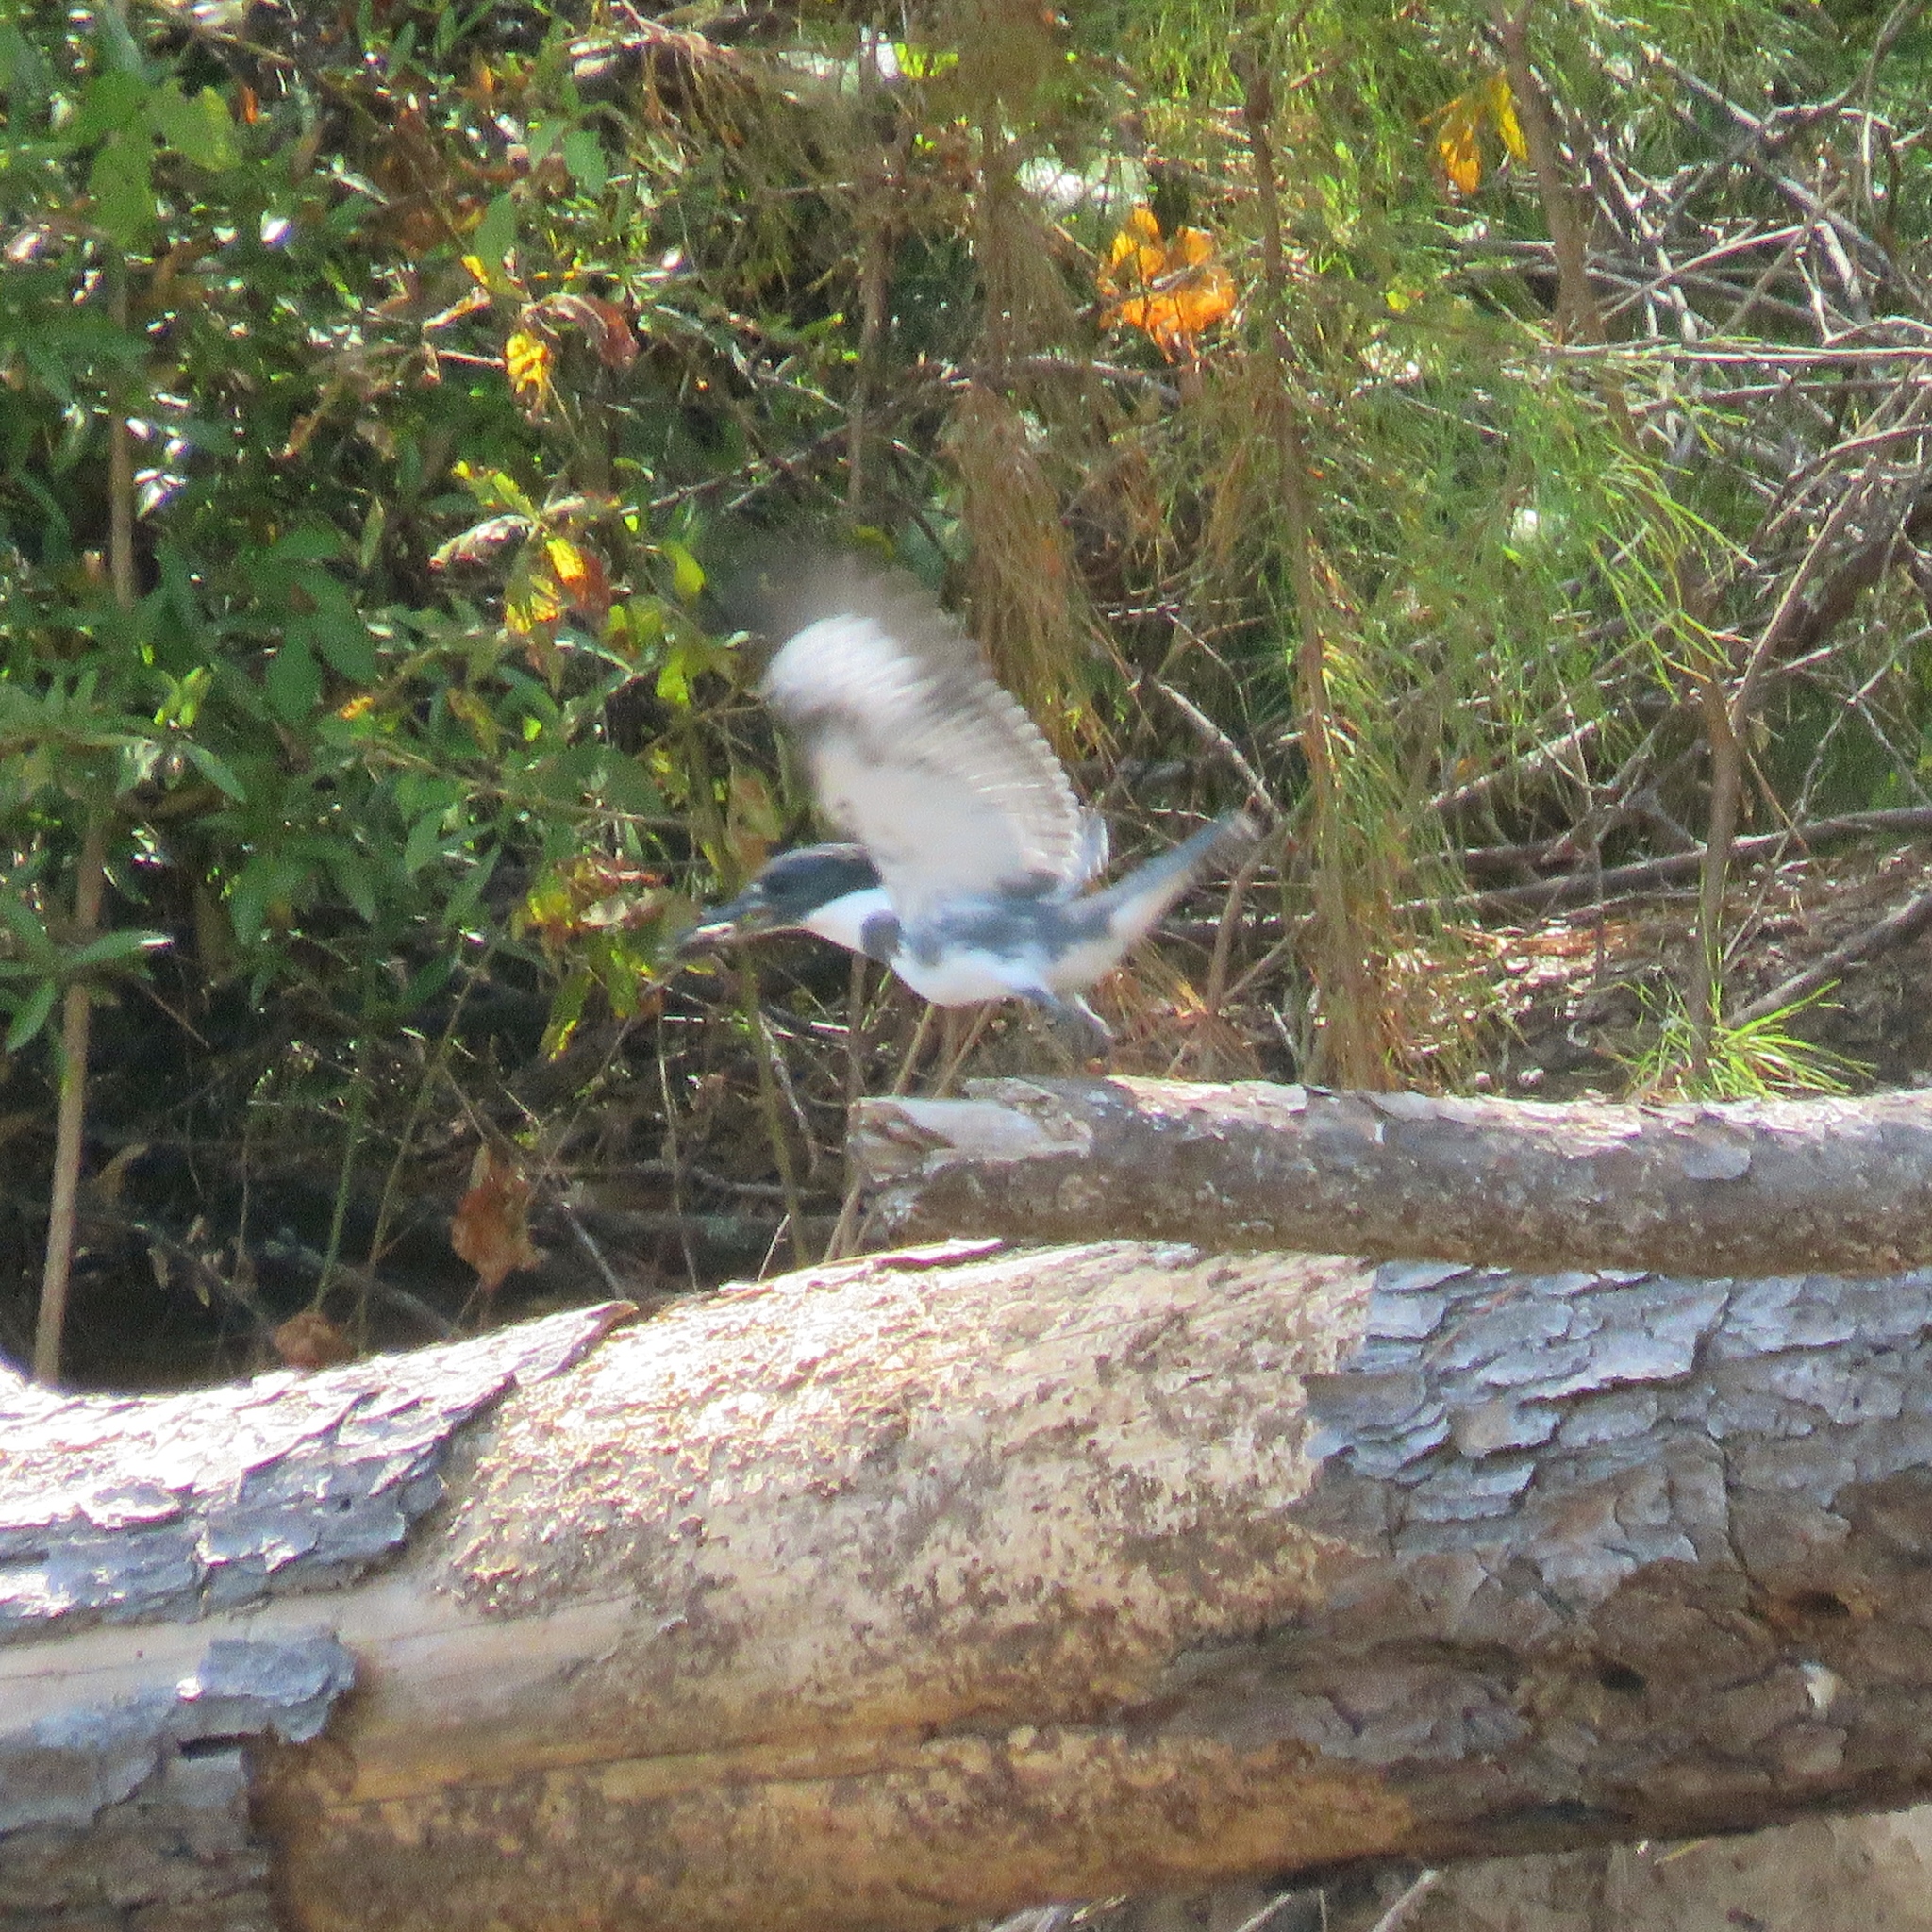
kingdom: Animalia
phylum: Chordata
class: Aves
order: Coraciiformes
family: Alcedinidae
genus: Megaceryle
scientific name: Megaceryle alcyon
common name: Belted kingfisher
